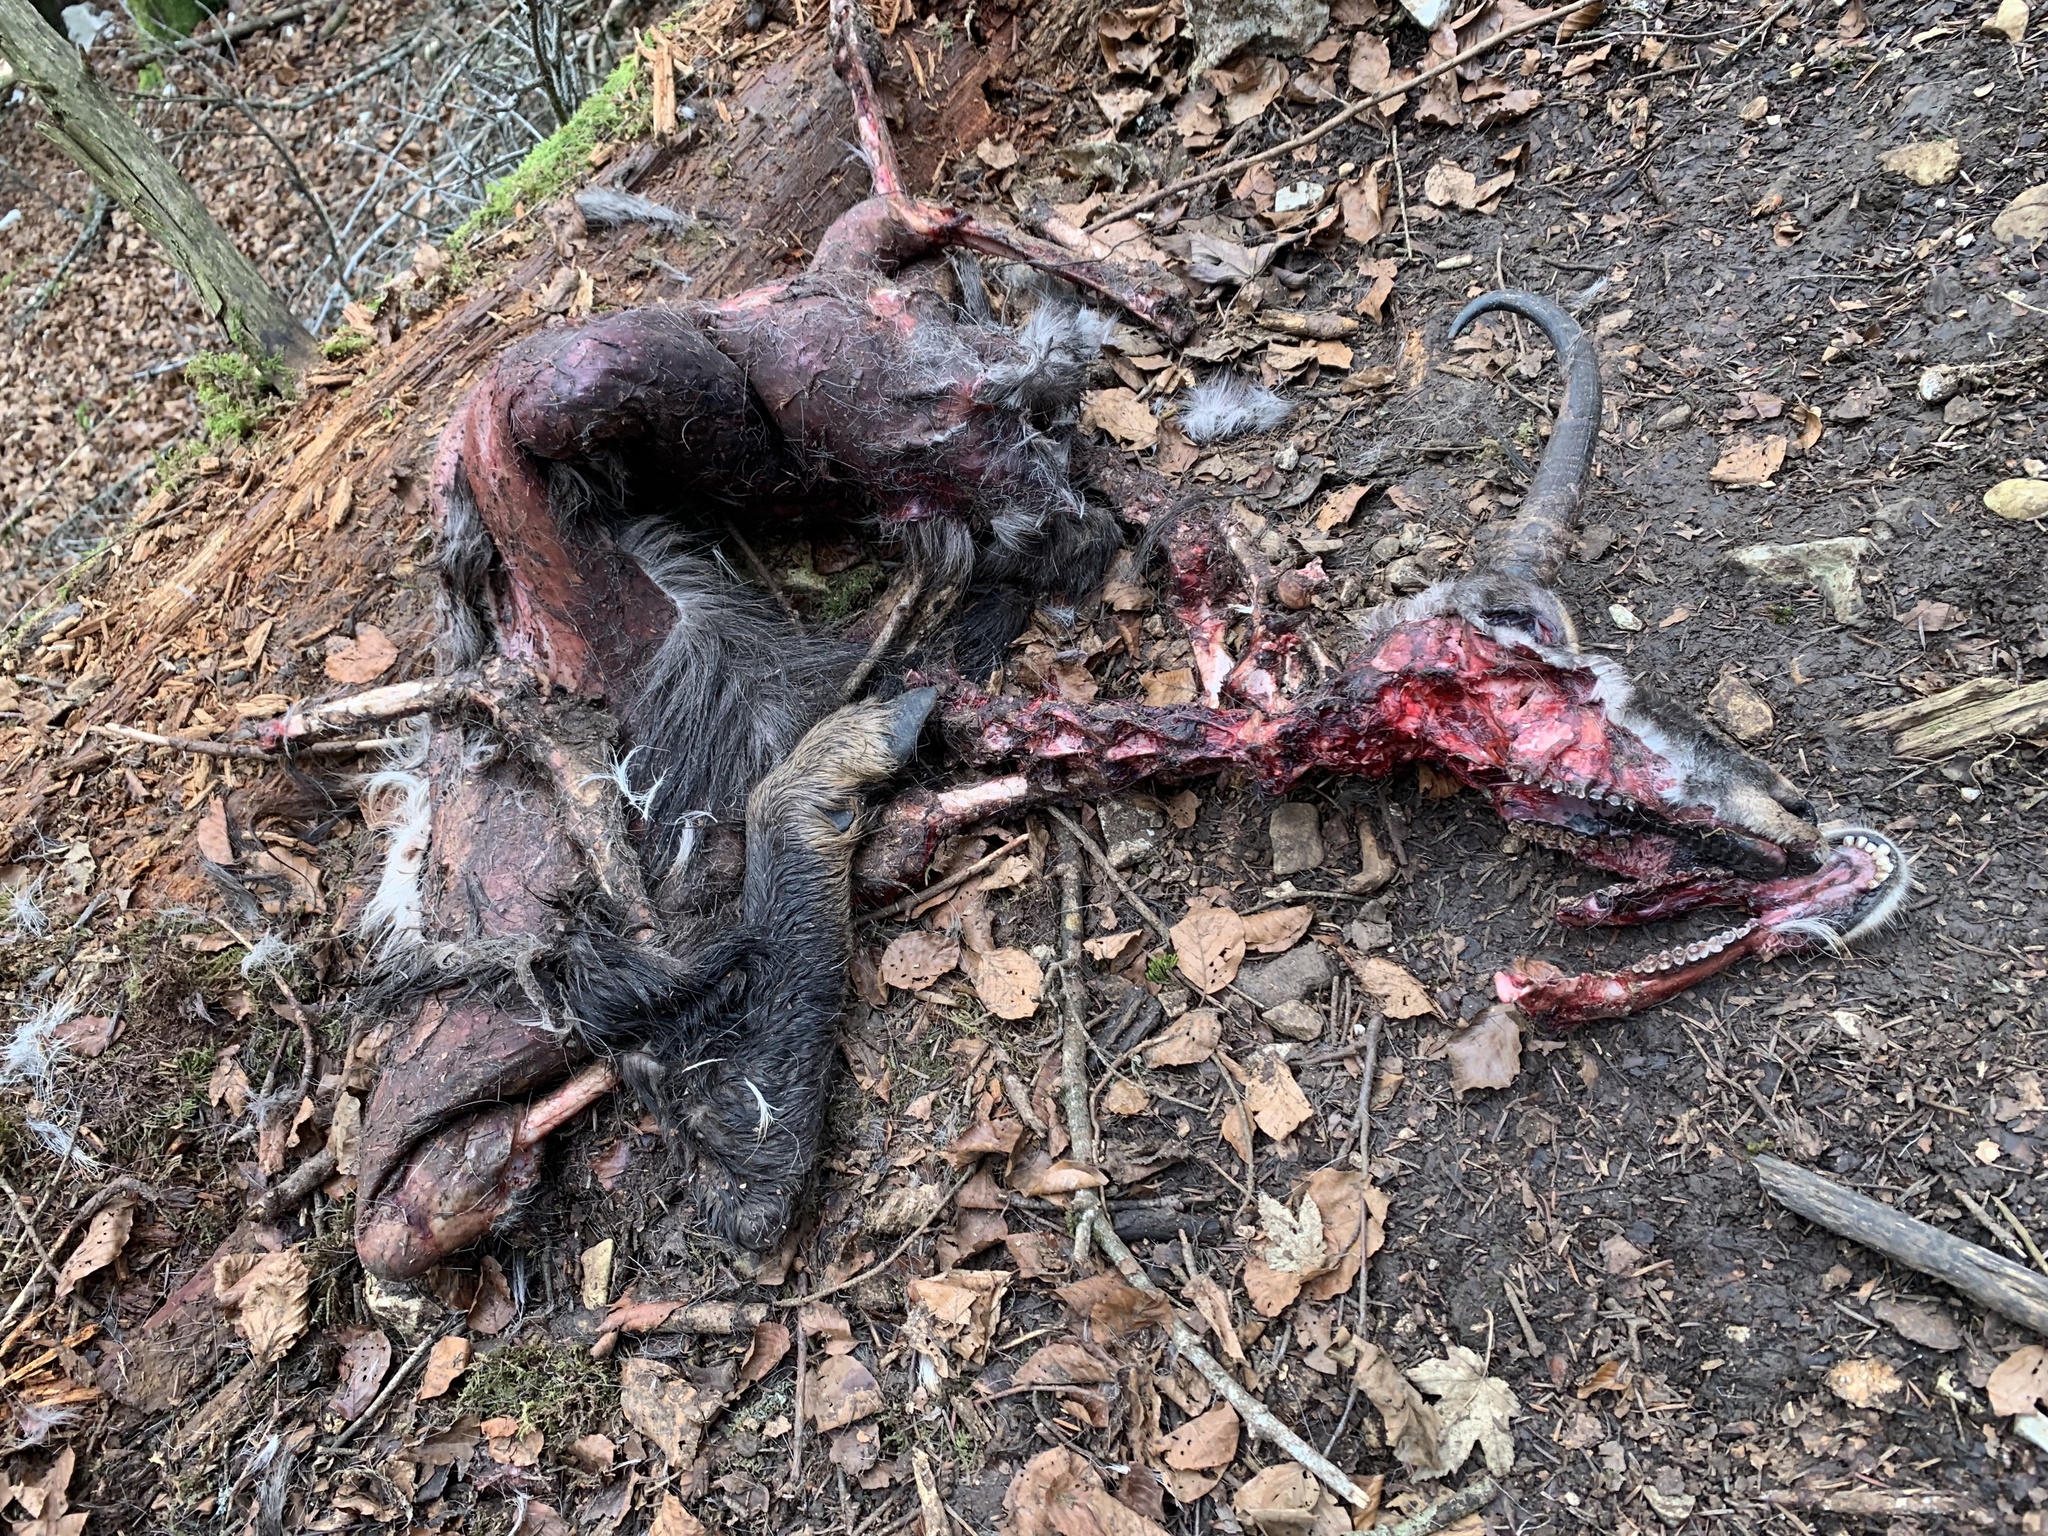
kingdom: Animalia
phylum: Chordata
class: Mammalia
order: Artiodactyla
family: Bovidae
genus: Rupicapra
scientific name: Rupicapra rupicapra
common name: Chamois
